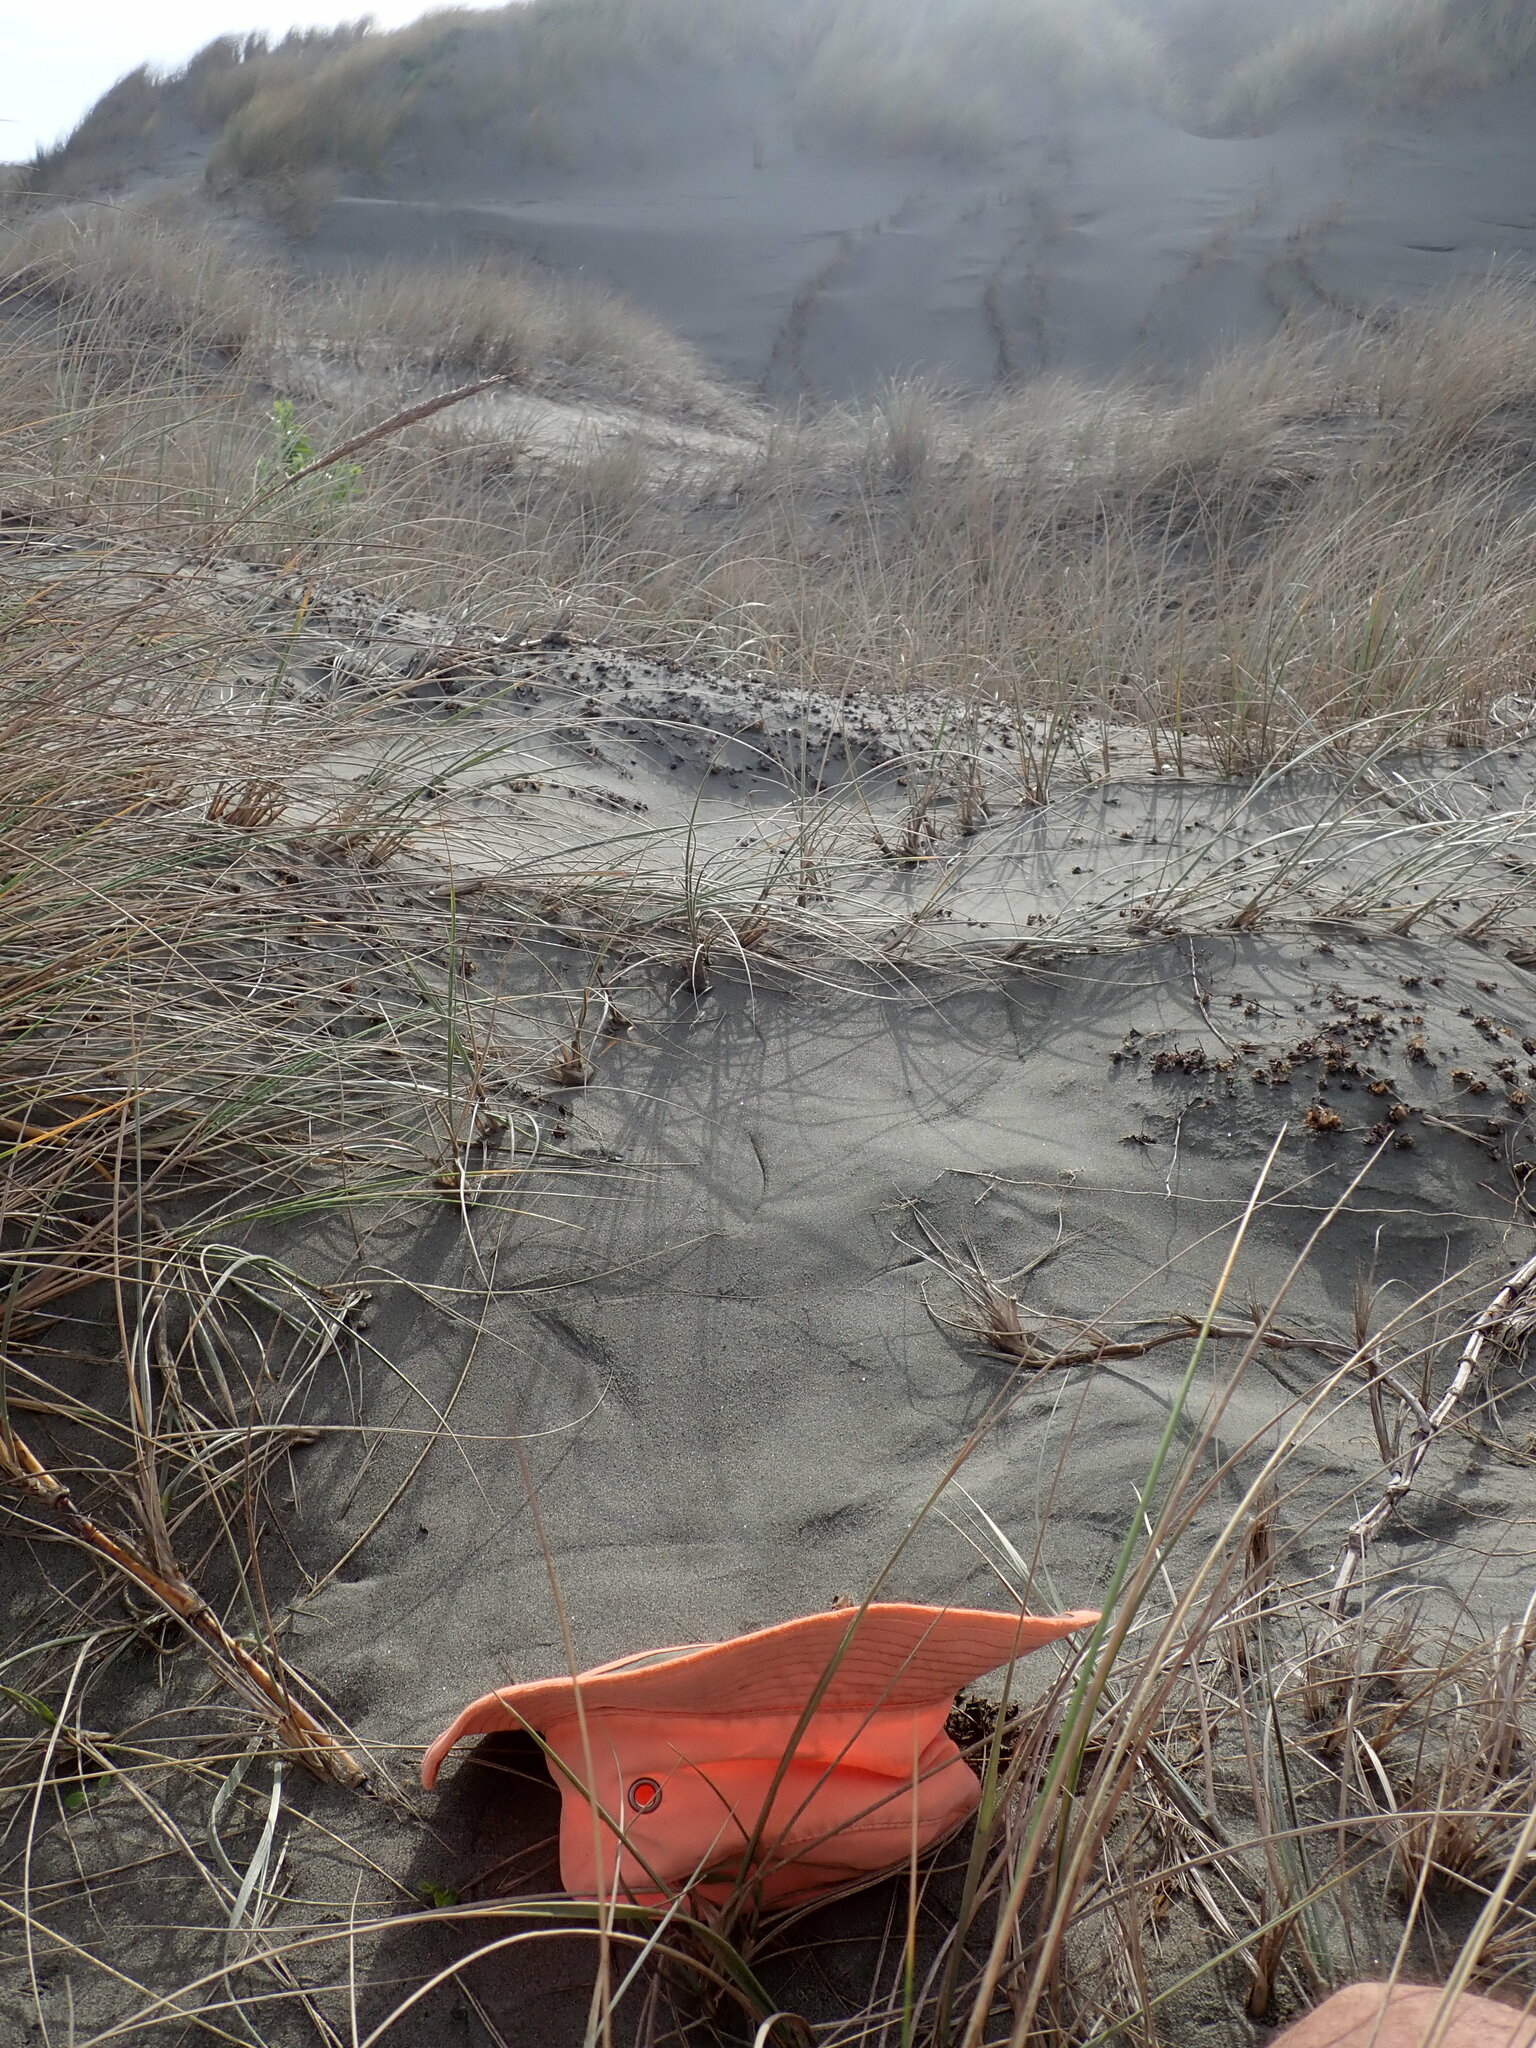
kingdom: Plantae
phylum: Tracheophyta
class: Magnoliopsida
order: Solanales
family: Convolvulaceae
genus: Calystegia
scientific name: Calystegia soldanella
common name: Sea bindweed
